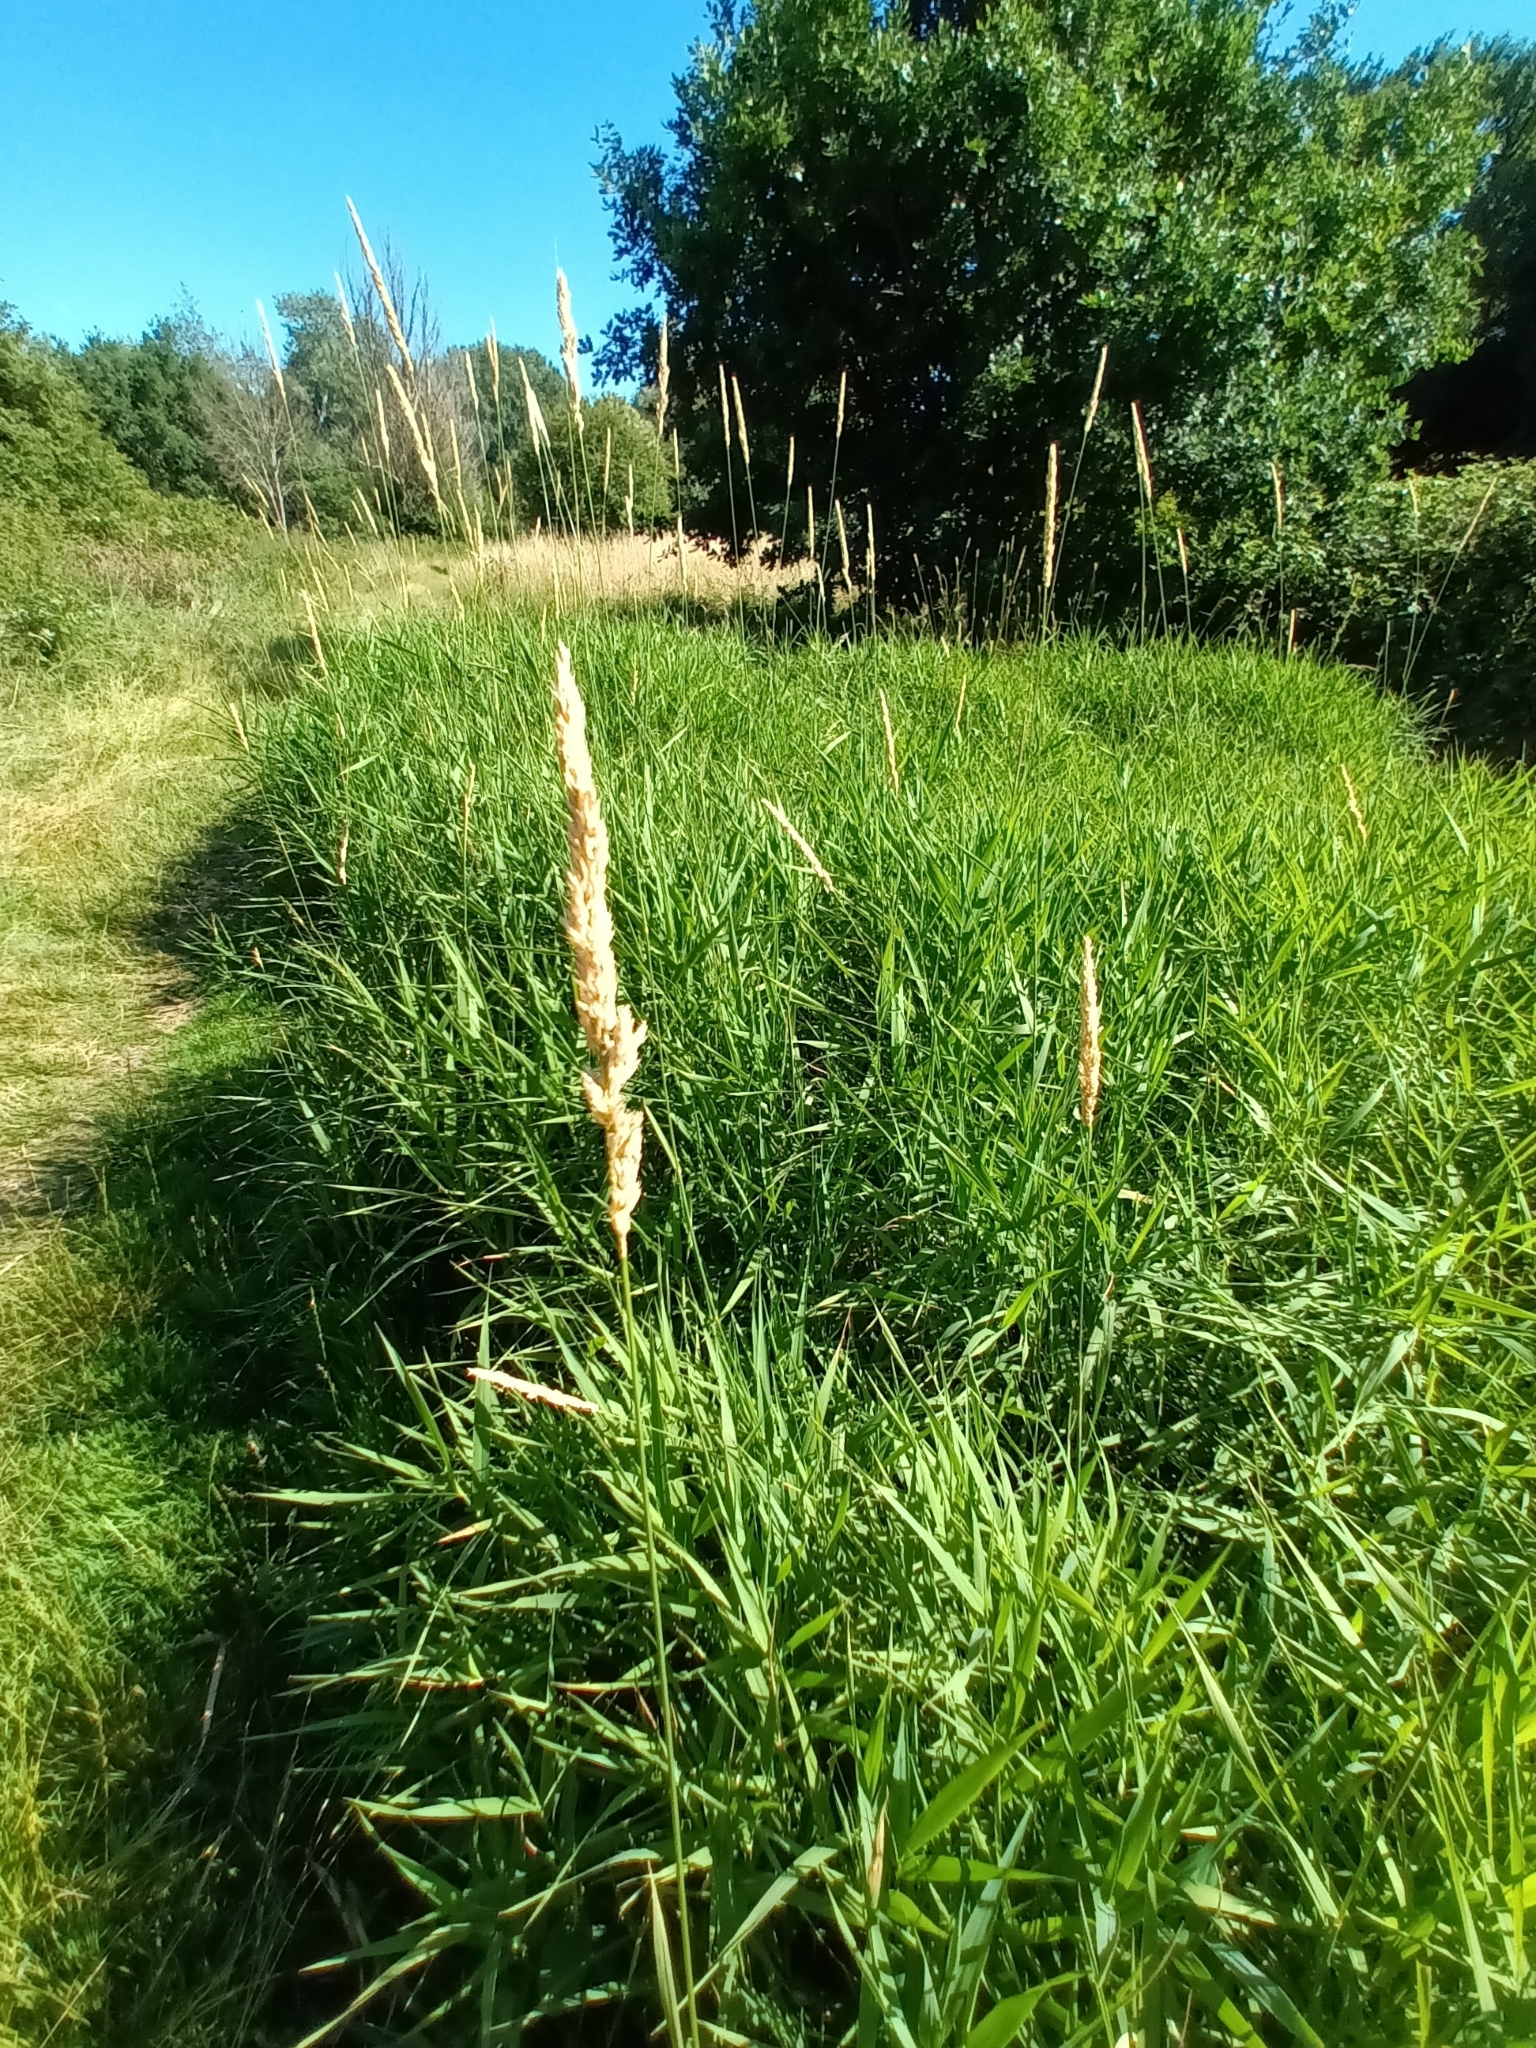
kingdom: Plantae
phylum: Tracheophyta
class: Liliopsida
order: Poales
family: Poaceae
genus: Phalaris
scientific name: Phalaris arundinacea
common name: Reed canary-grass
